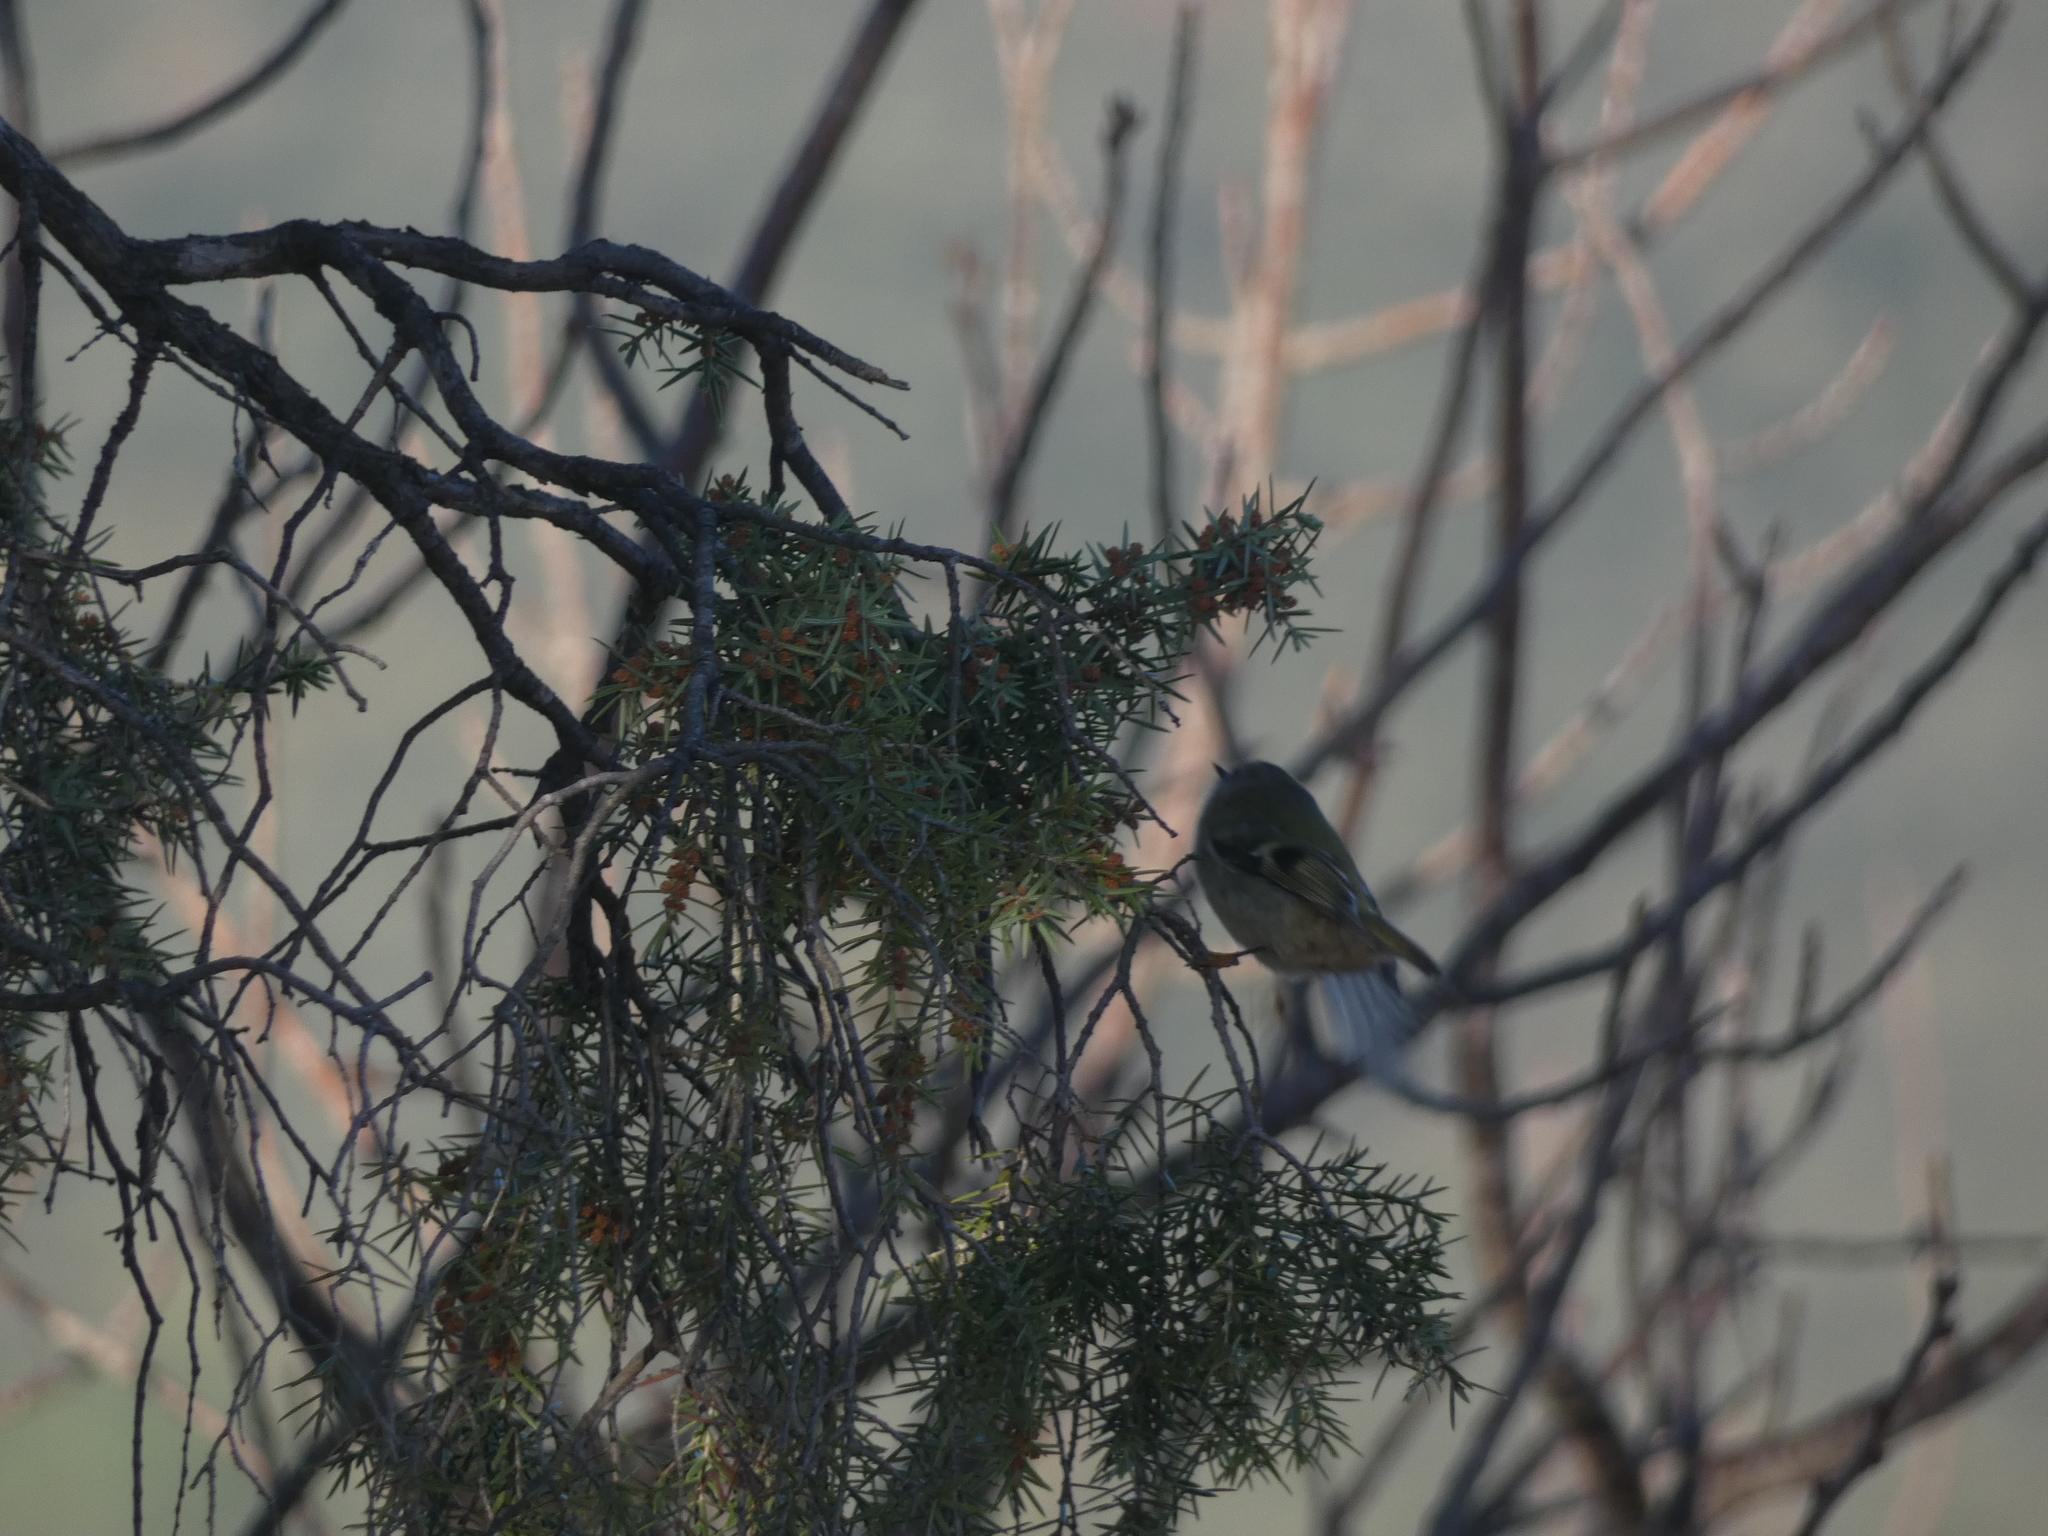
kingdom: Animalia
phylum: Chordata
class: Aves
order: Passeriformes
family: Regulidae
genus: Regulus
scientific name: Regulus regulus
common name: Goldcrest
